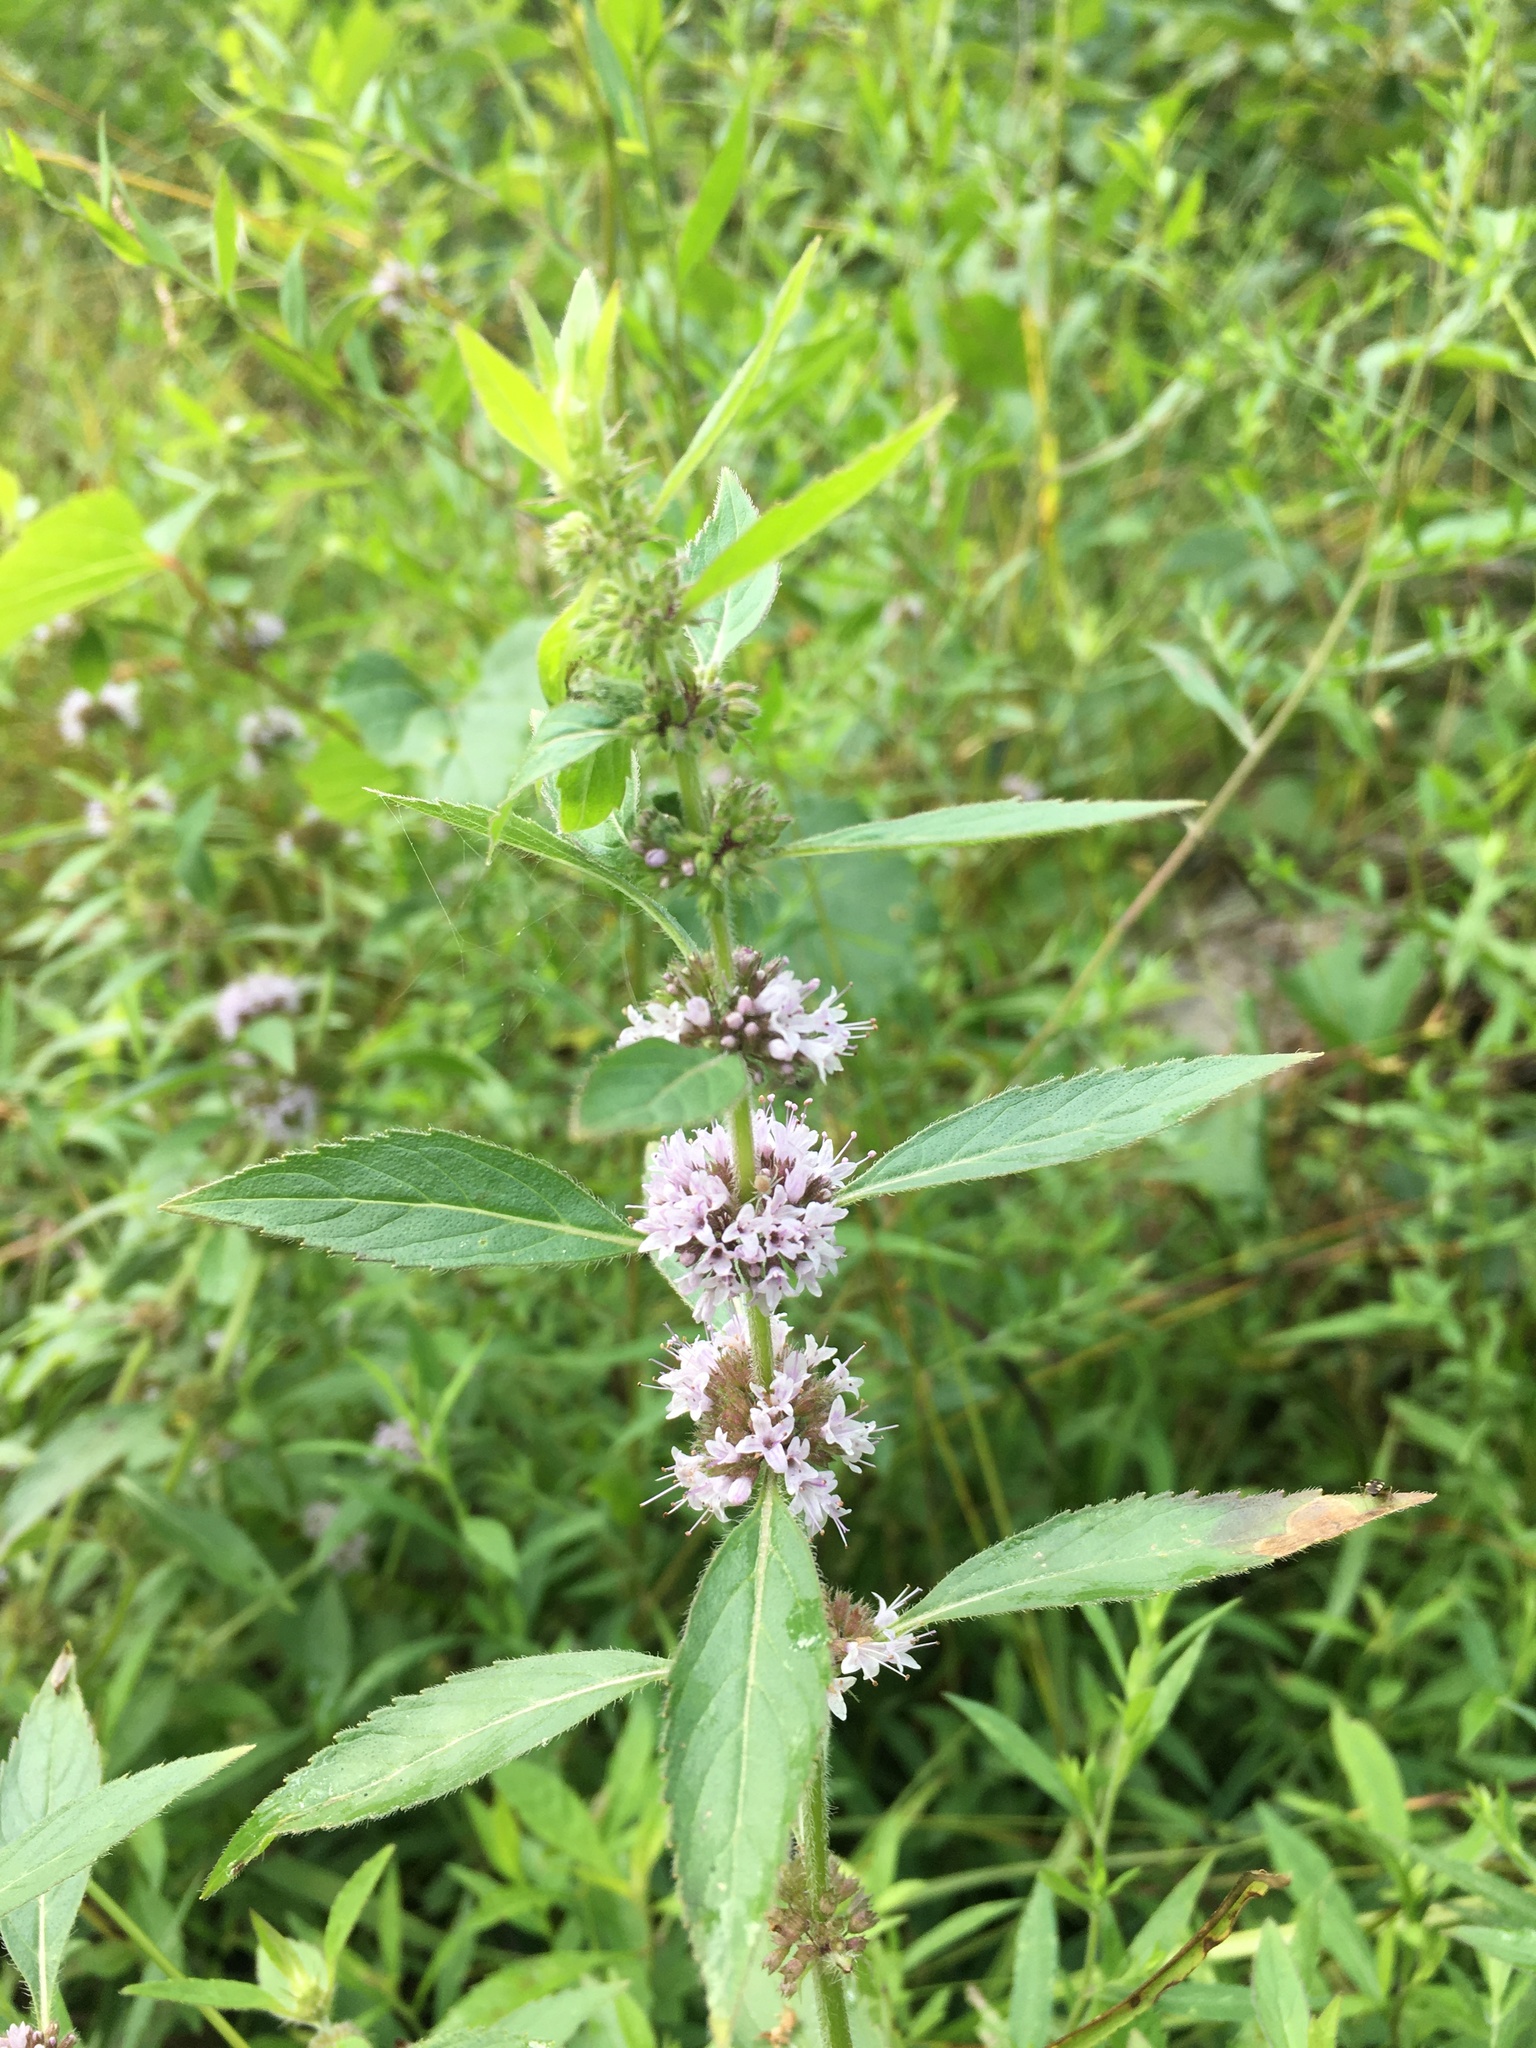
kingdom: Plantae
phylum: Tracheophyta
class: Magnoliopsida
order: Lamiales
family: Lamiaceae
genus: Mentha
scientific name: Mentha canadensis
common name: American corn mint
